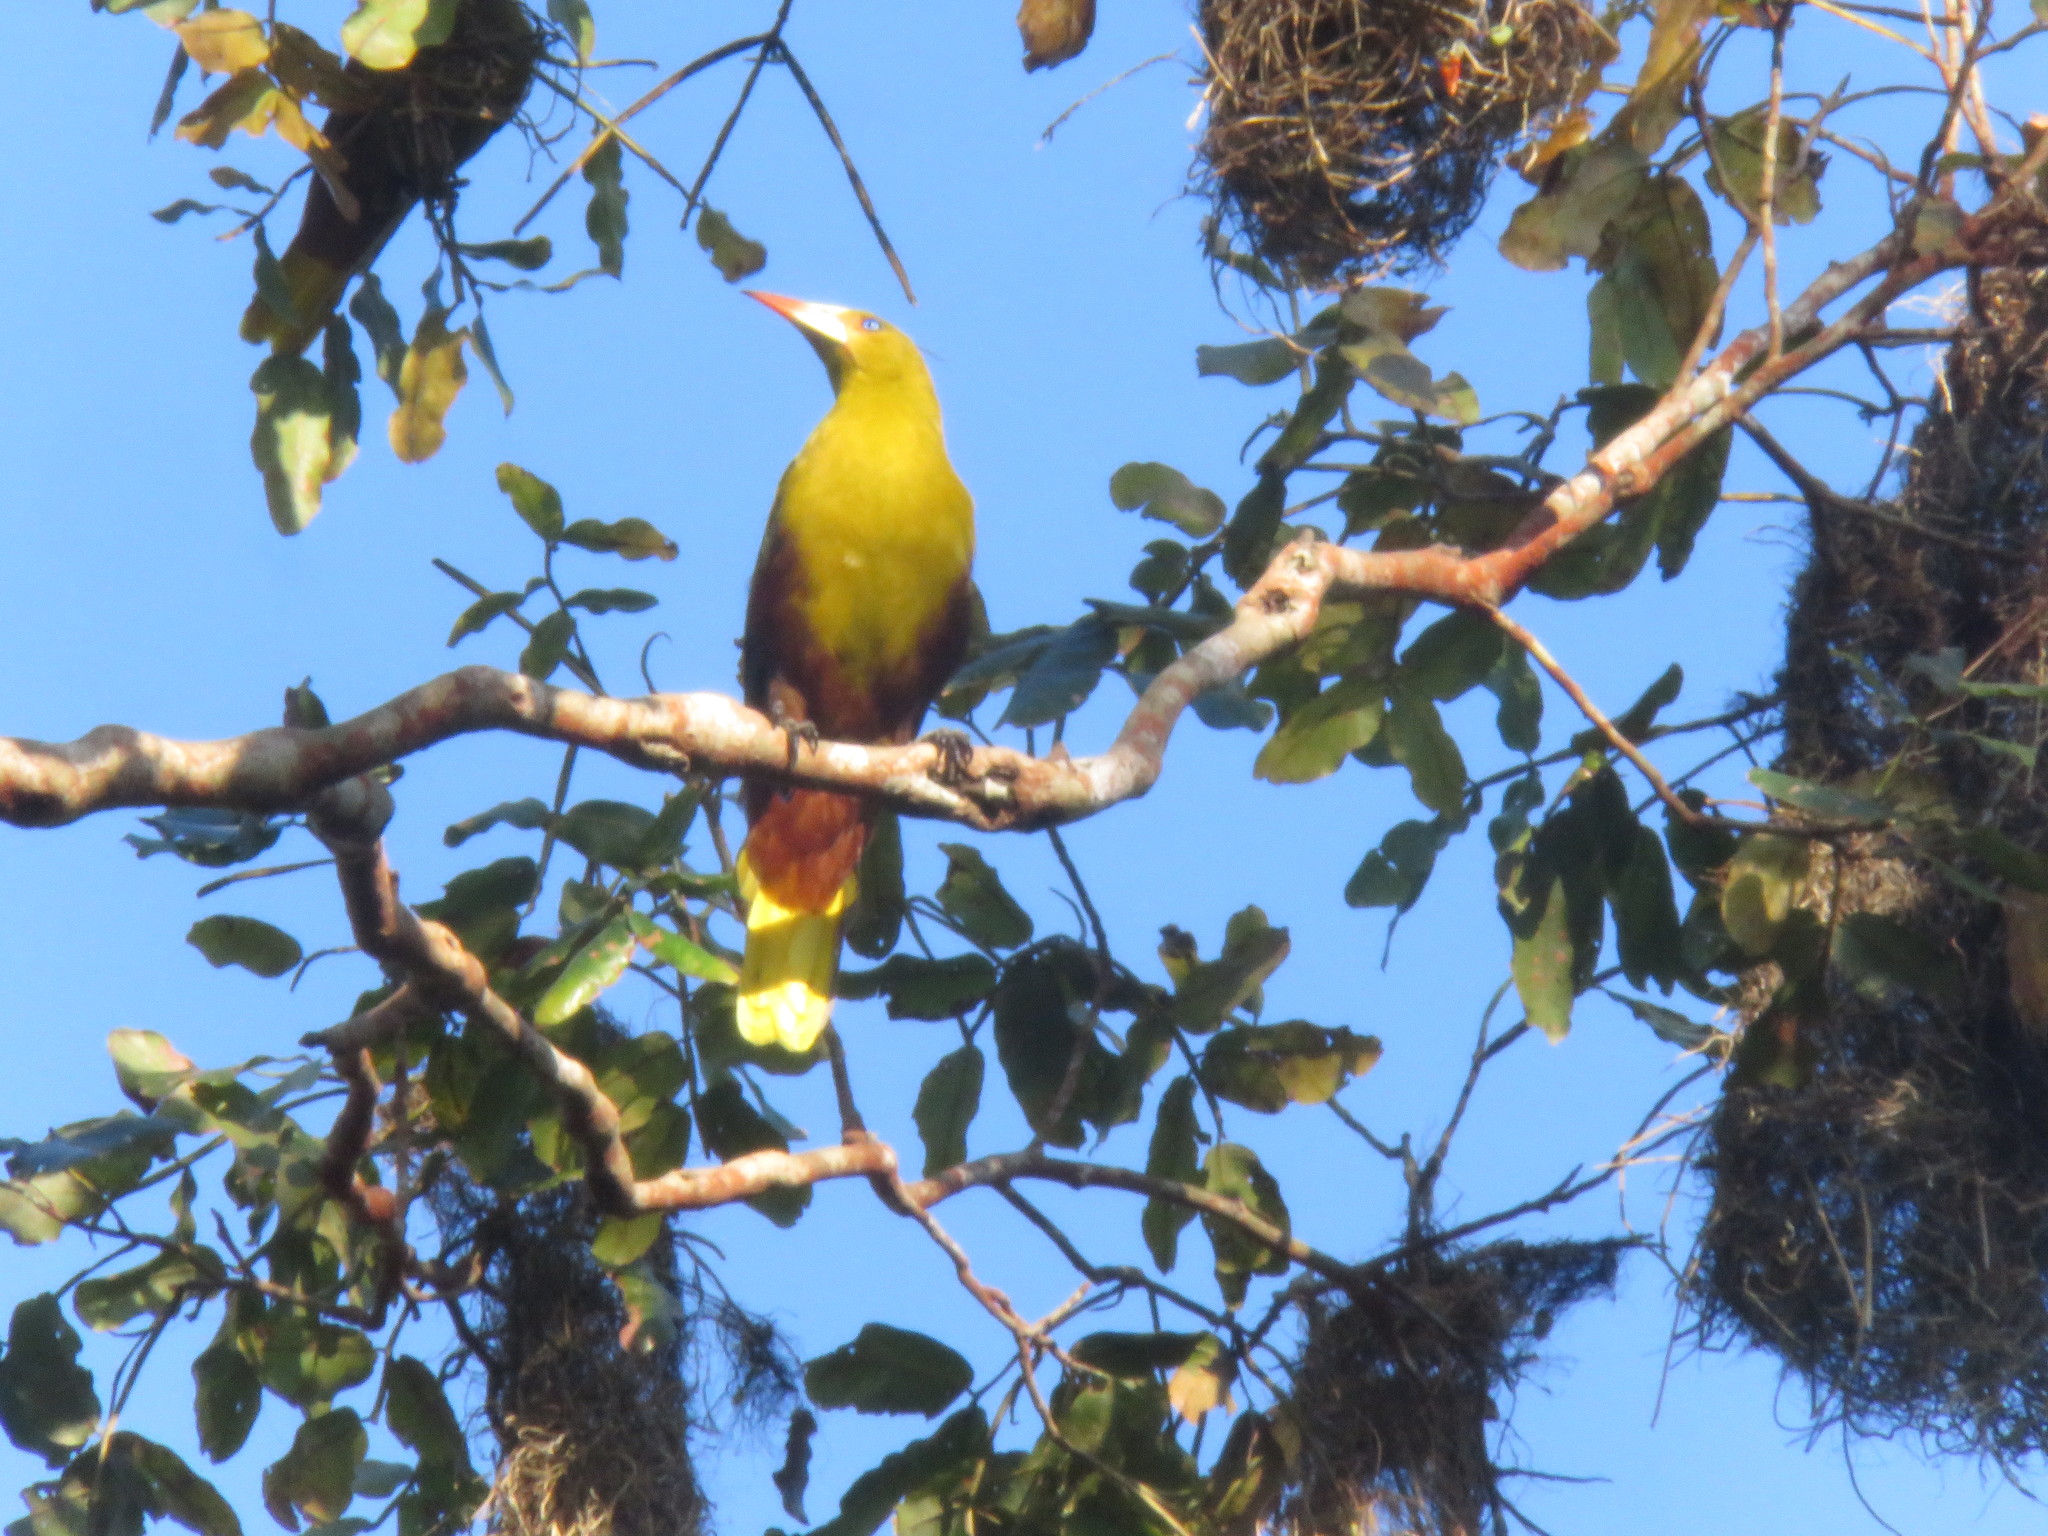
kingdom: Animalia
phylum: Chordata
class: Aves
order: Passeriformes
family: Icteridae
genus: Psarocolius
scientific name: Psarocolius viridis
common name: Green oropendola
